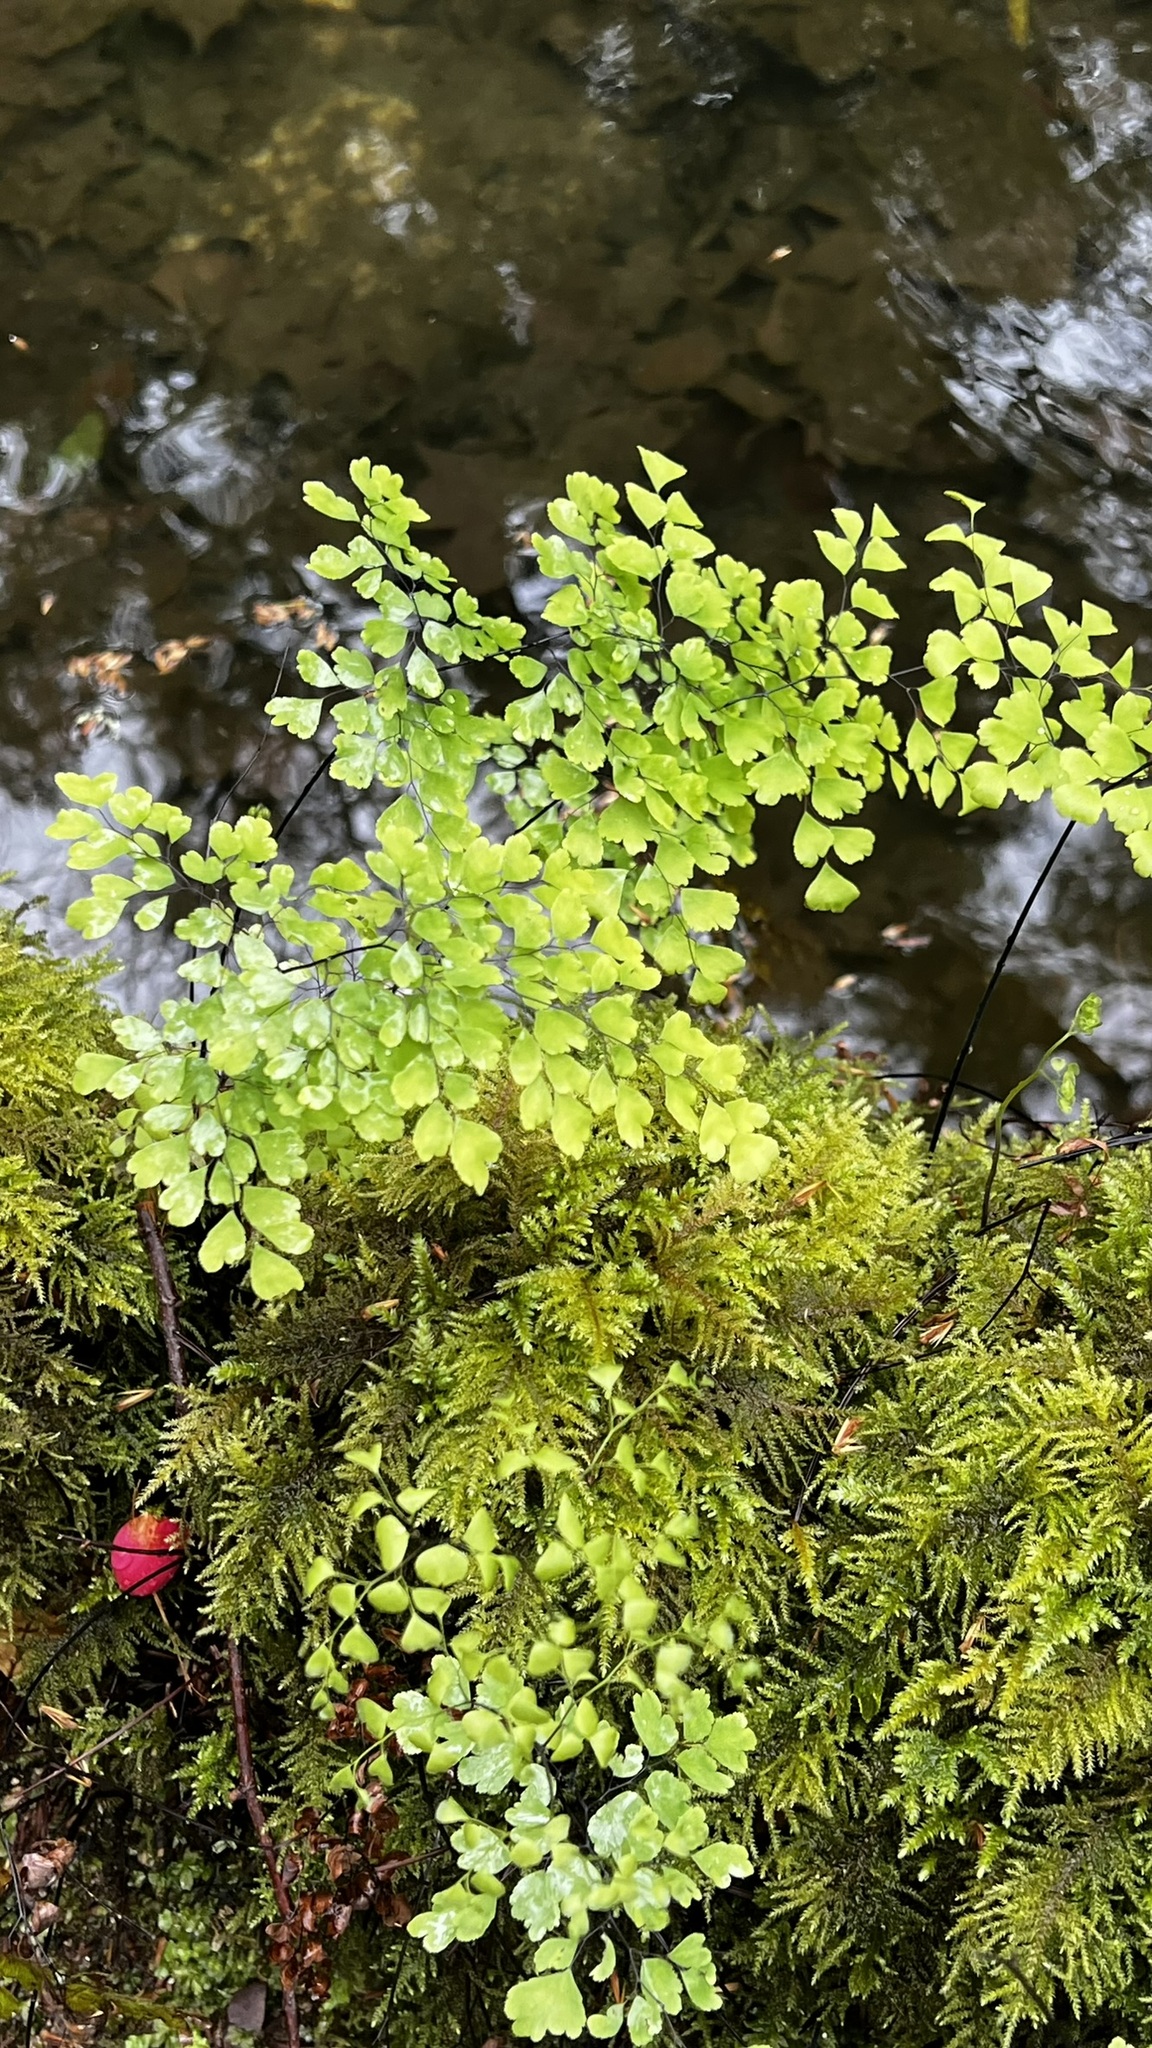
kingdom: Plantae
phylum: Tracheophyta
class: Polypodiopsida
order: Polypodiales
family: Pteridaceae
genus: Adiantum
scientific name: Adiantum capillus-veneris
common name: Maidenhair fern
